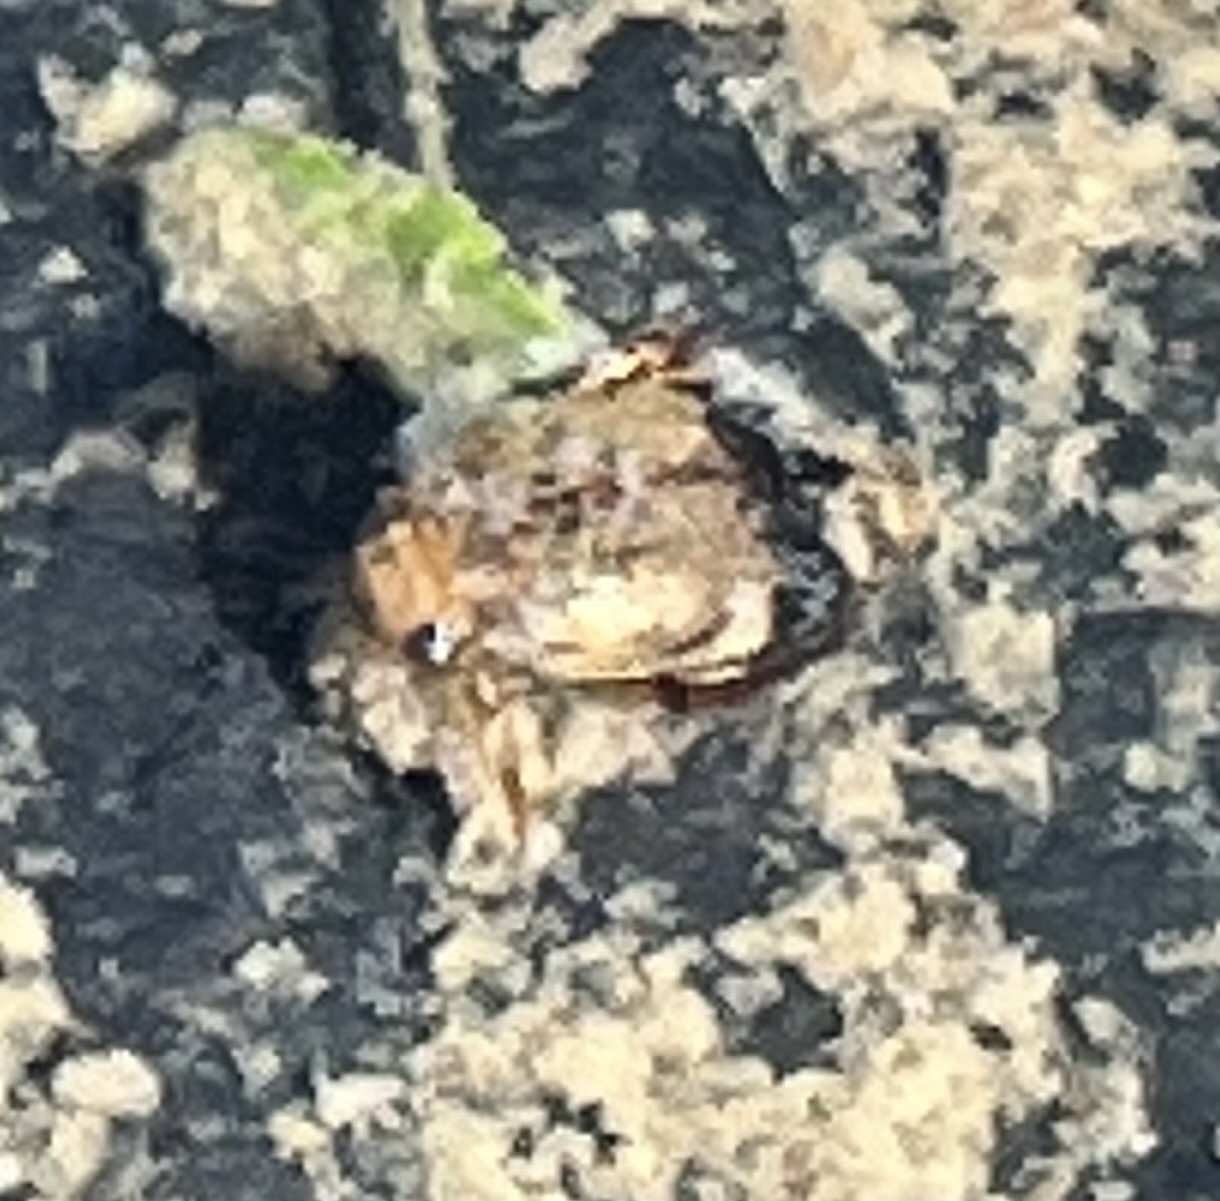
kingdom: Animalia
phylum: Arthropoda
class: Insecta
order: Coleoptera
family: Dytiscidae
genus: Laccophilus
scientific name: Laccophilus fasciatus
